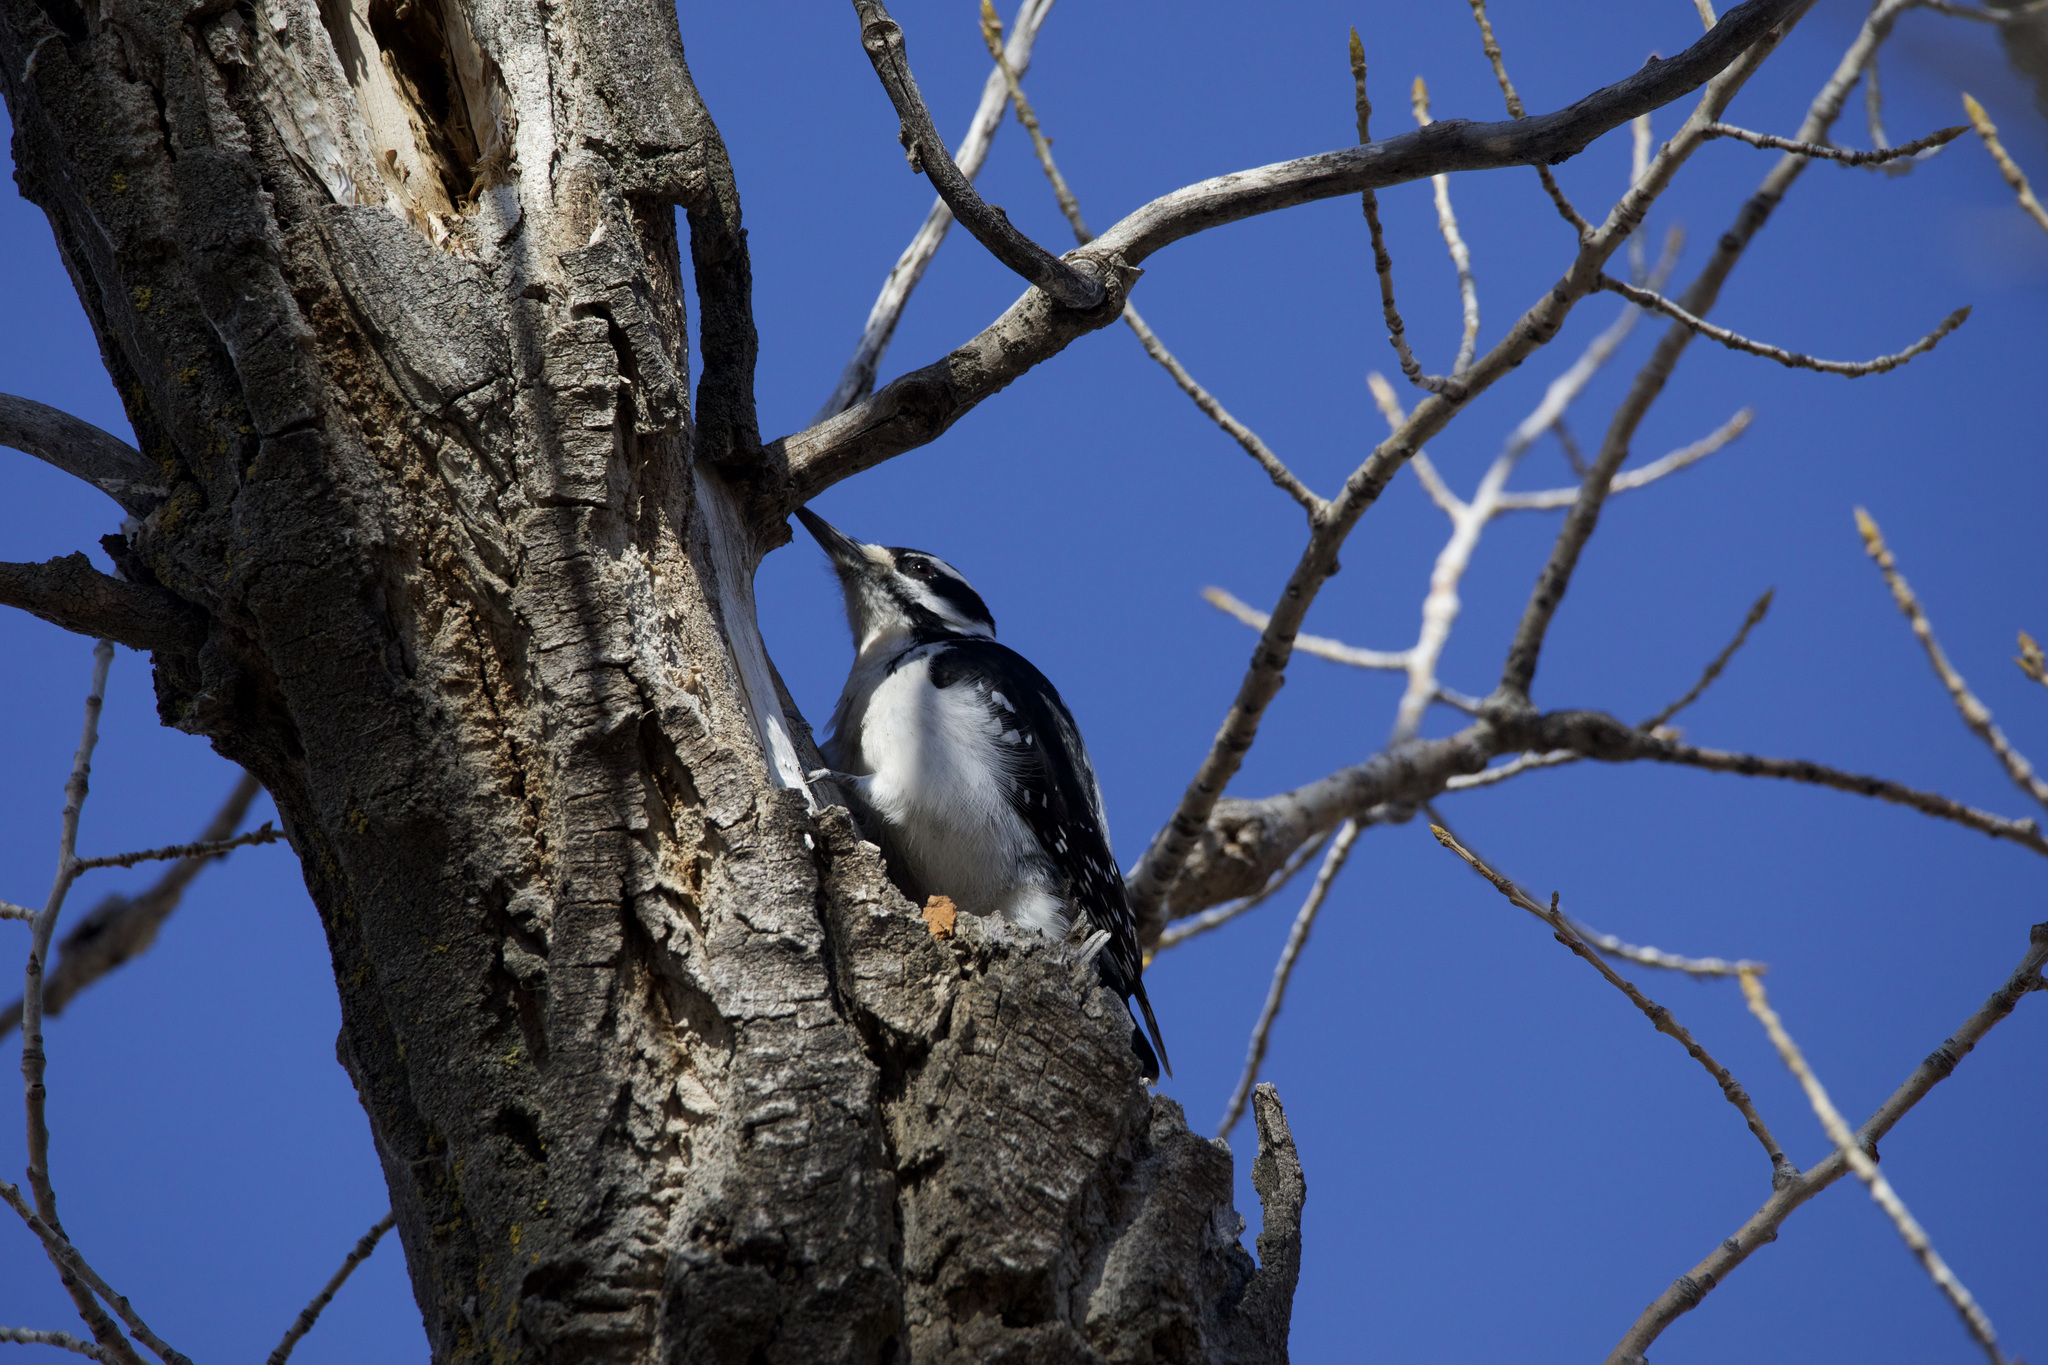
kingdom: Animalia
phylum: Chordata
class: Aves
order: Piciformes
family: Picidae
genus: Leuconotopicus
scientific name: Leuconotopicus villosus
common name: Hairy woodpecker
